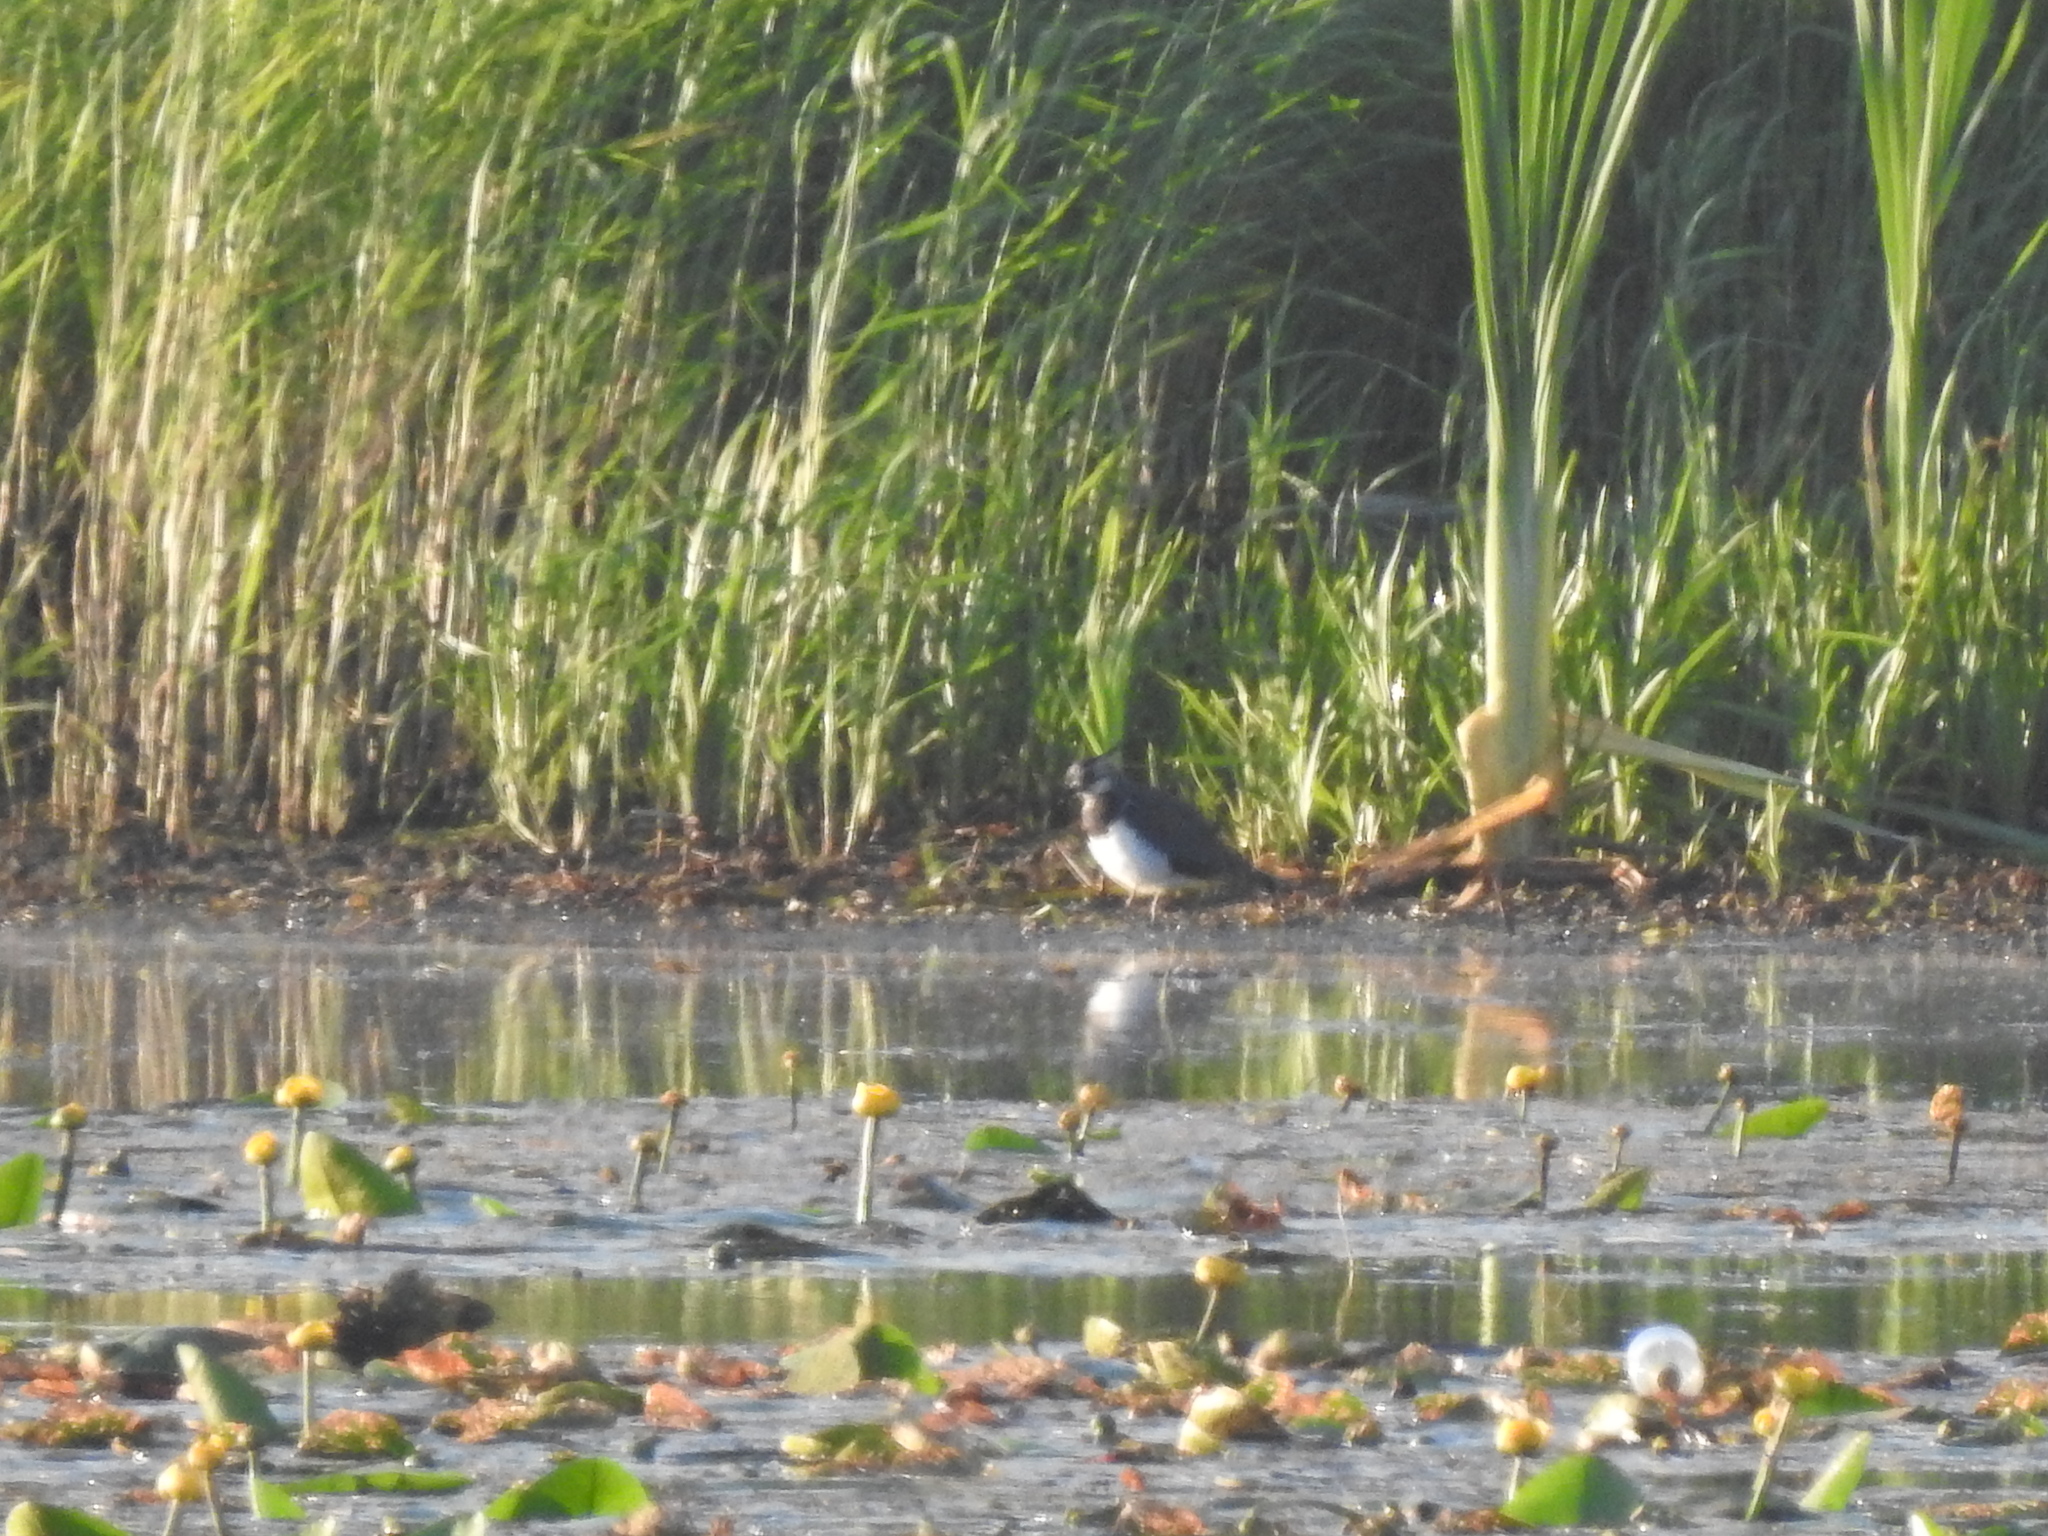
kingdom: Animalia
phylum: Chordata
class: Aves
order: Charadriiformes
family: Charadriidae
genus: Vanellus
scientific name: Vanellus vanellus
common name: Northern lapwing
